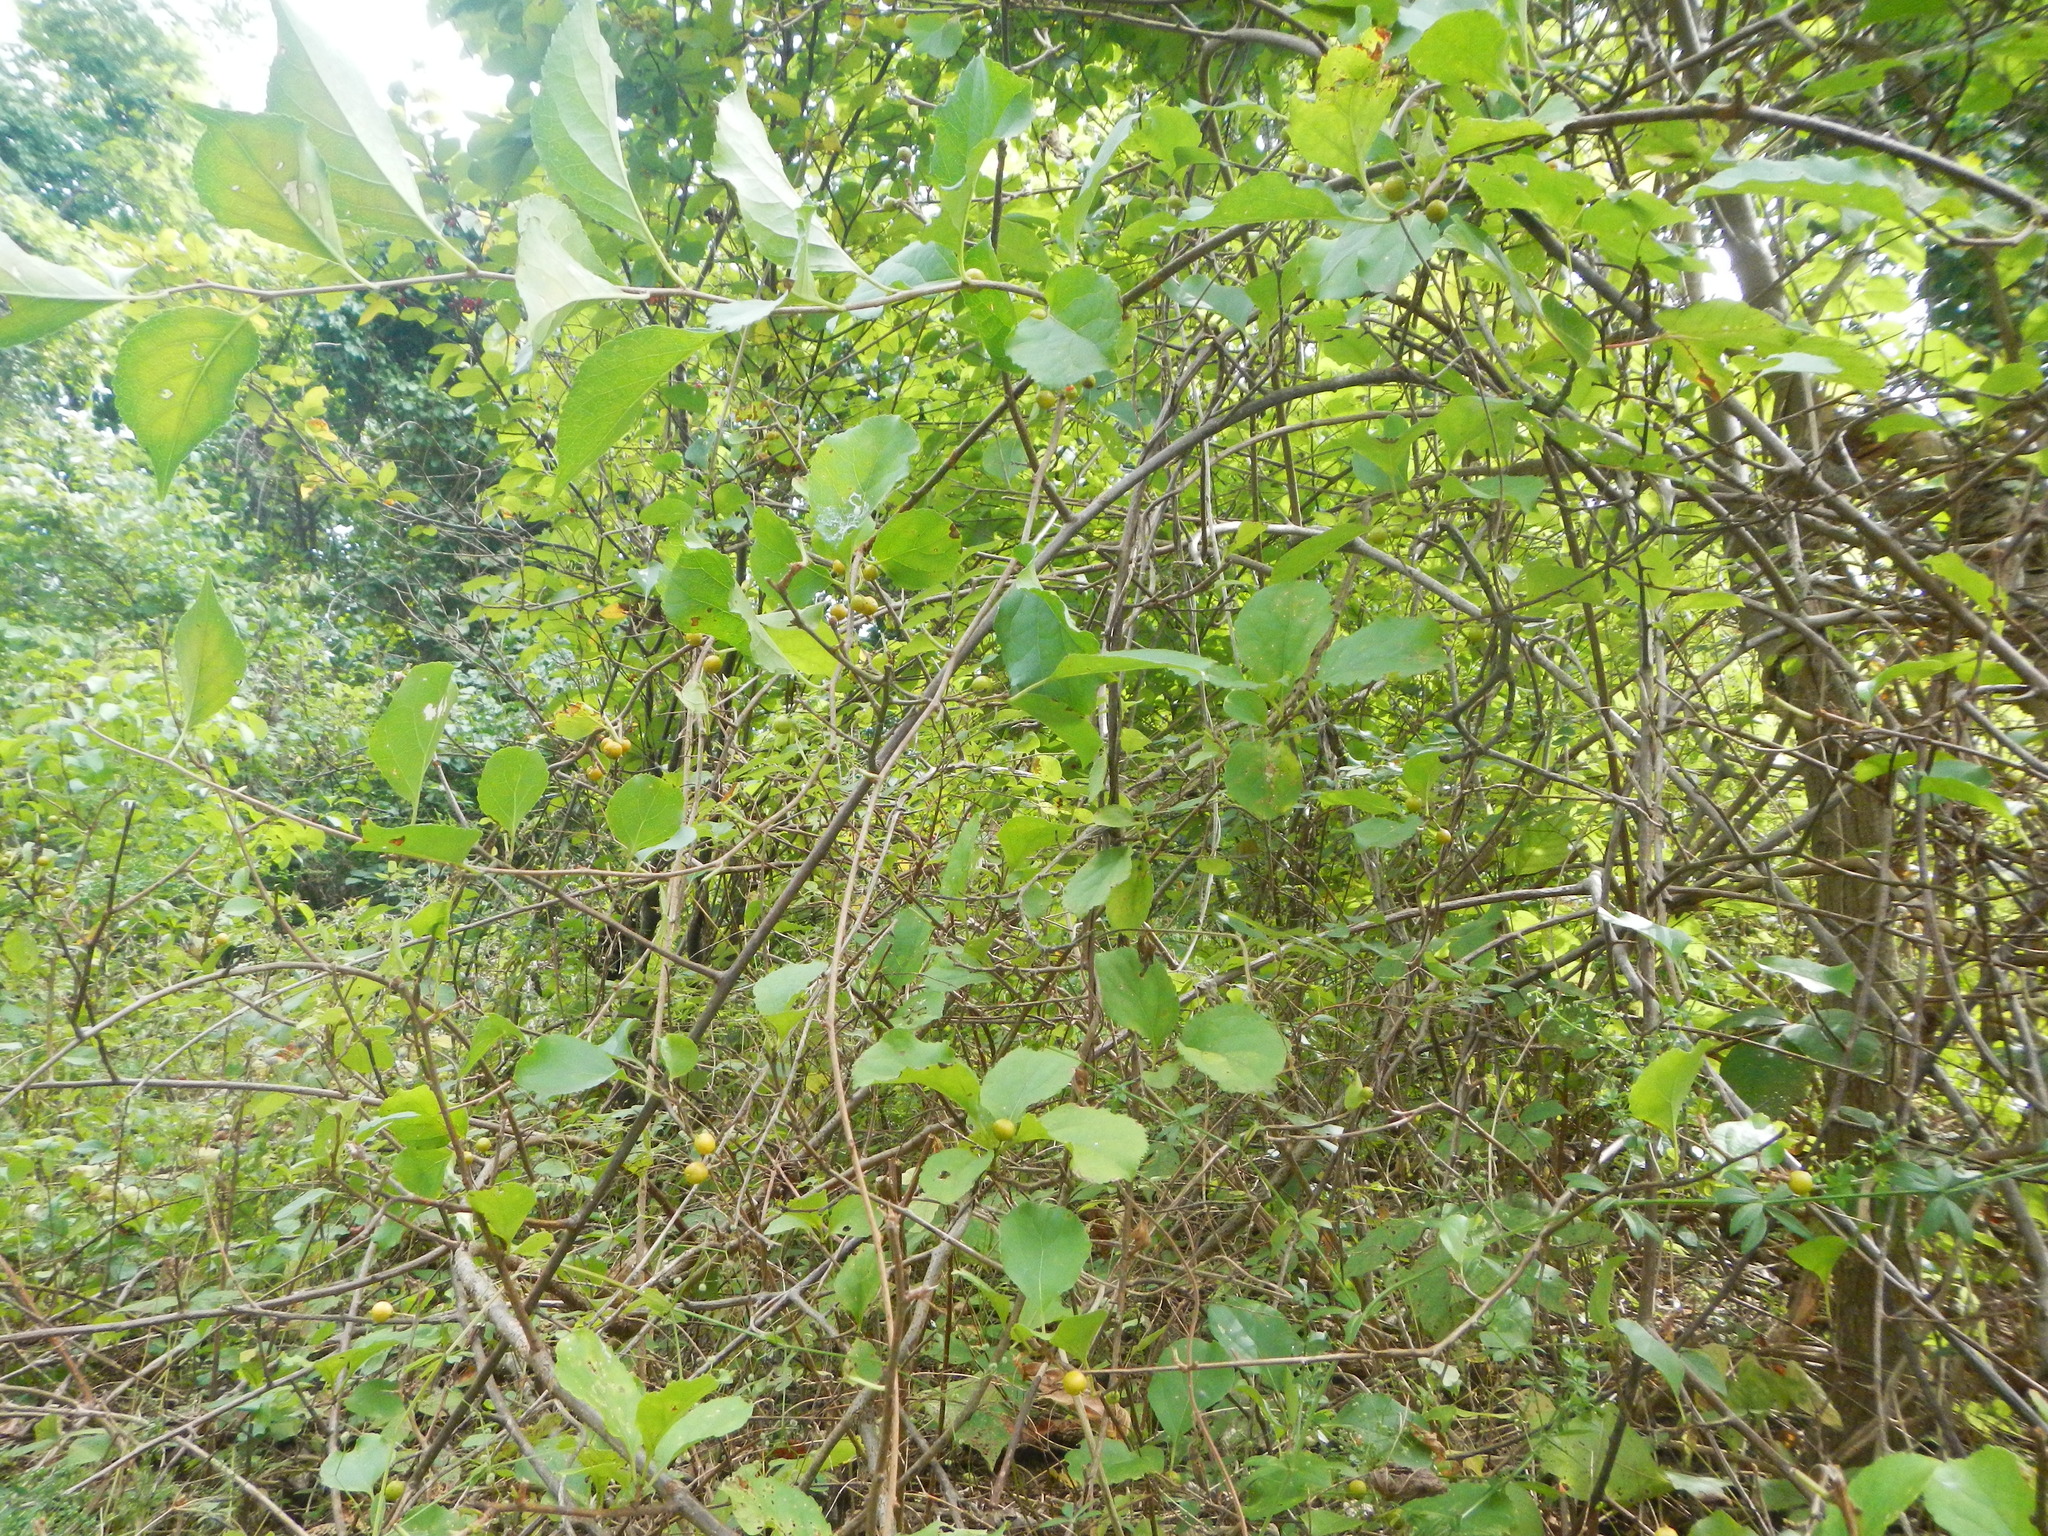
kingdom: Plantae
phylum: Tracheophyta
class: Magnoliopsida
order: Celastrales
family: Celastraceae
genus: Celastrus
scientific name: Celastrus orbiculatus
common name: Oriental bittersweet
